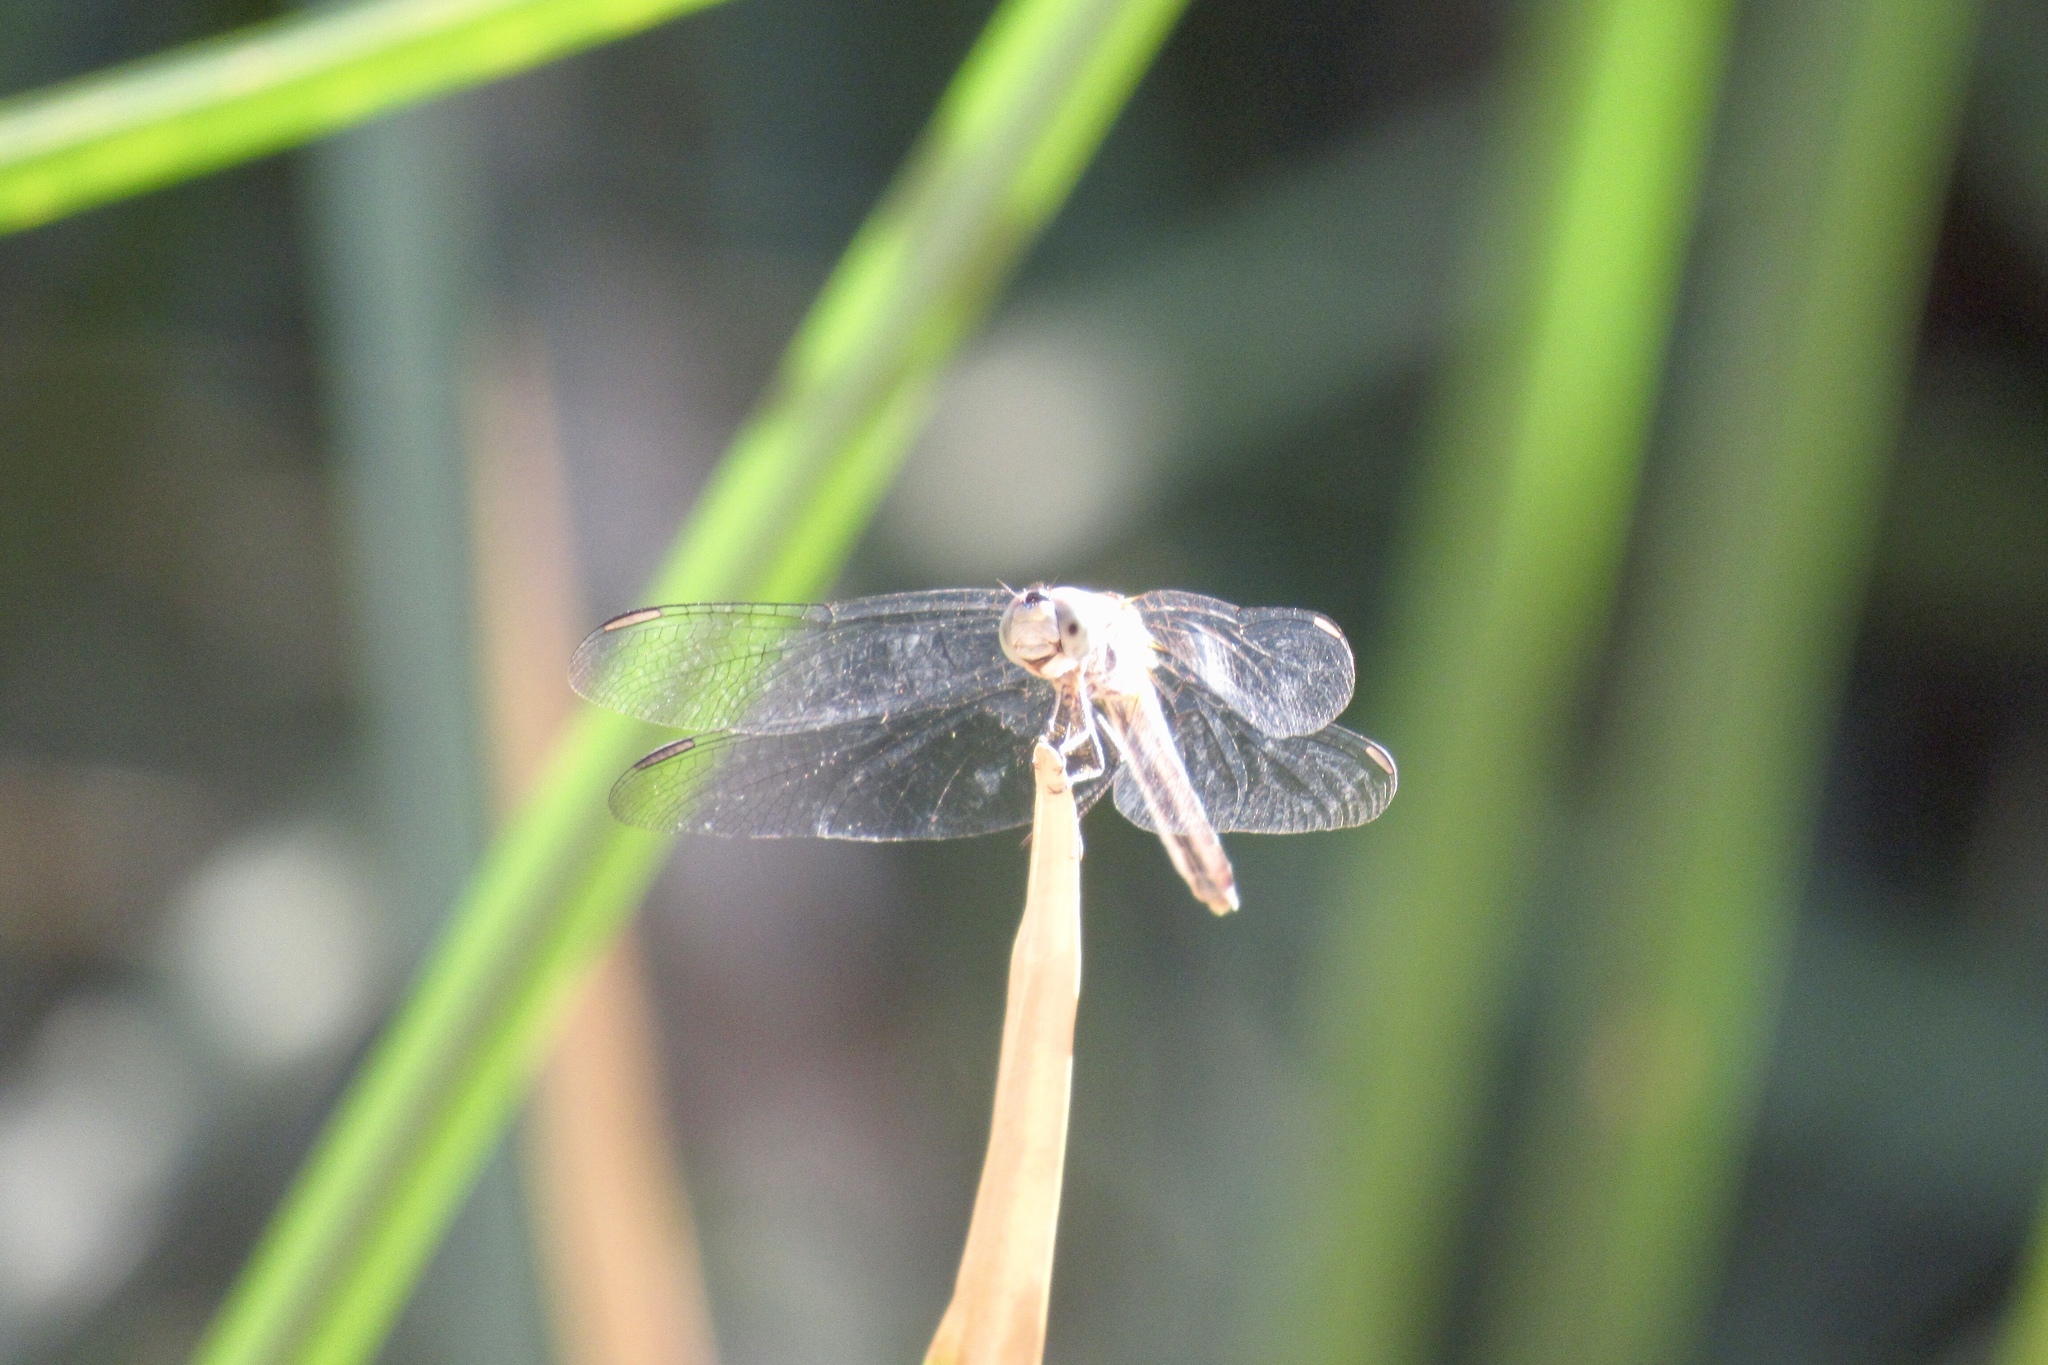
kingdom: Animalia
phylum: Arthropoda
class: Insecta
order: Odonata
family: Libellulidae
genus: Pachydiplax
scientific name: Pachydiplax longipennis
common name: Blue dasher
